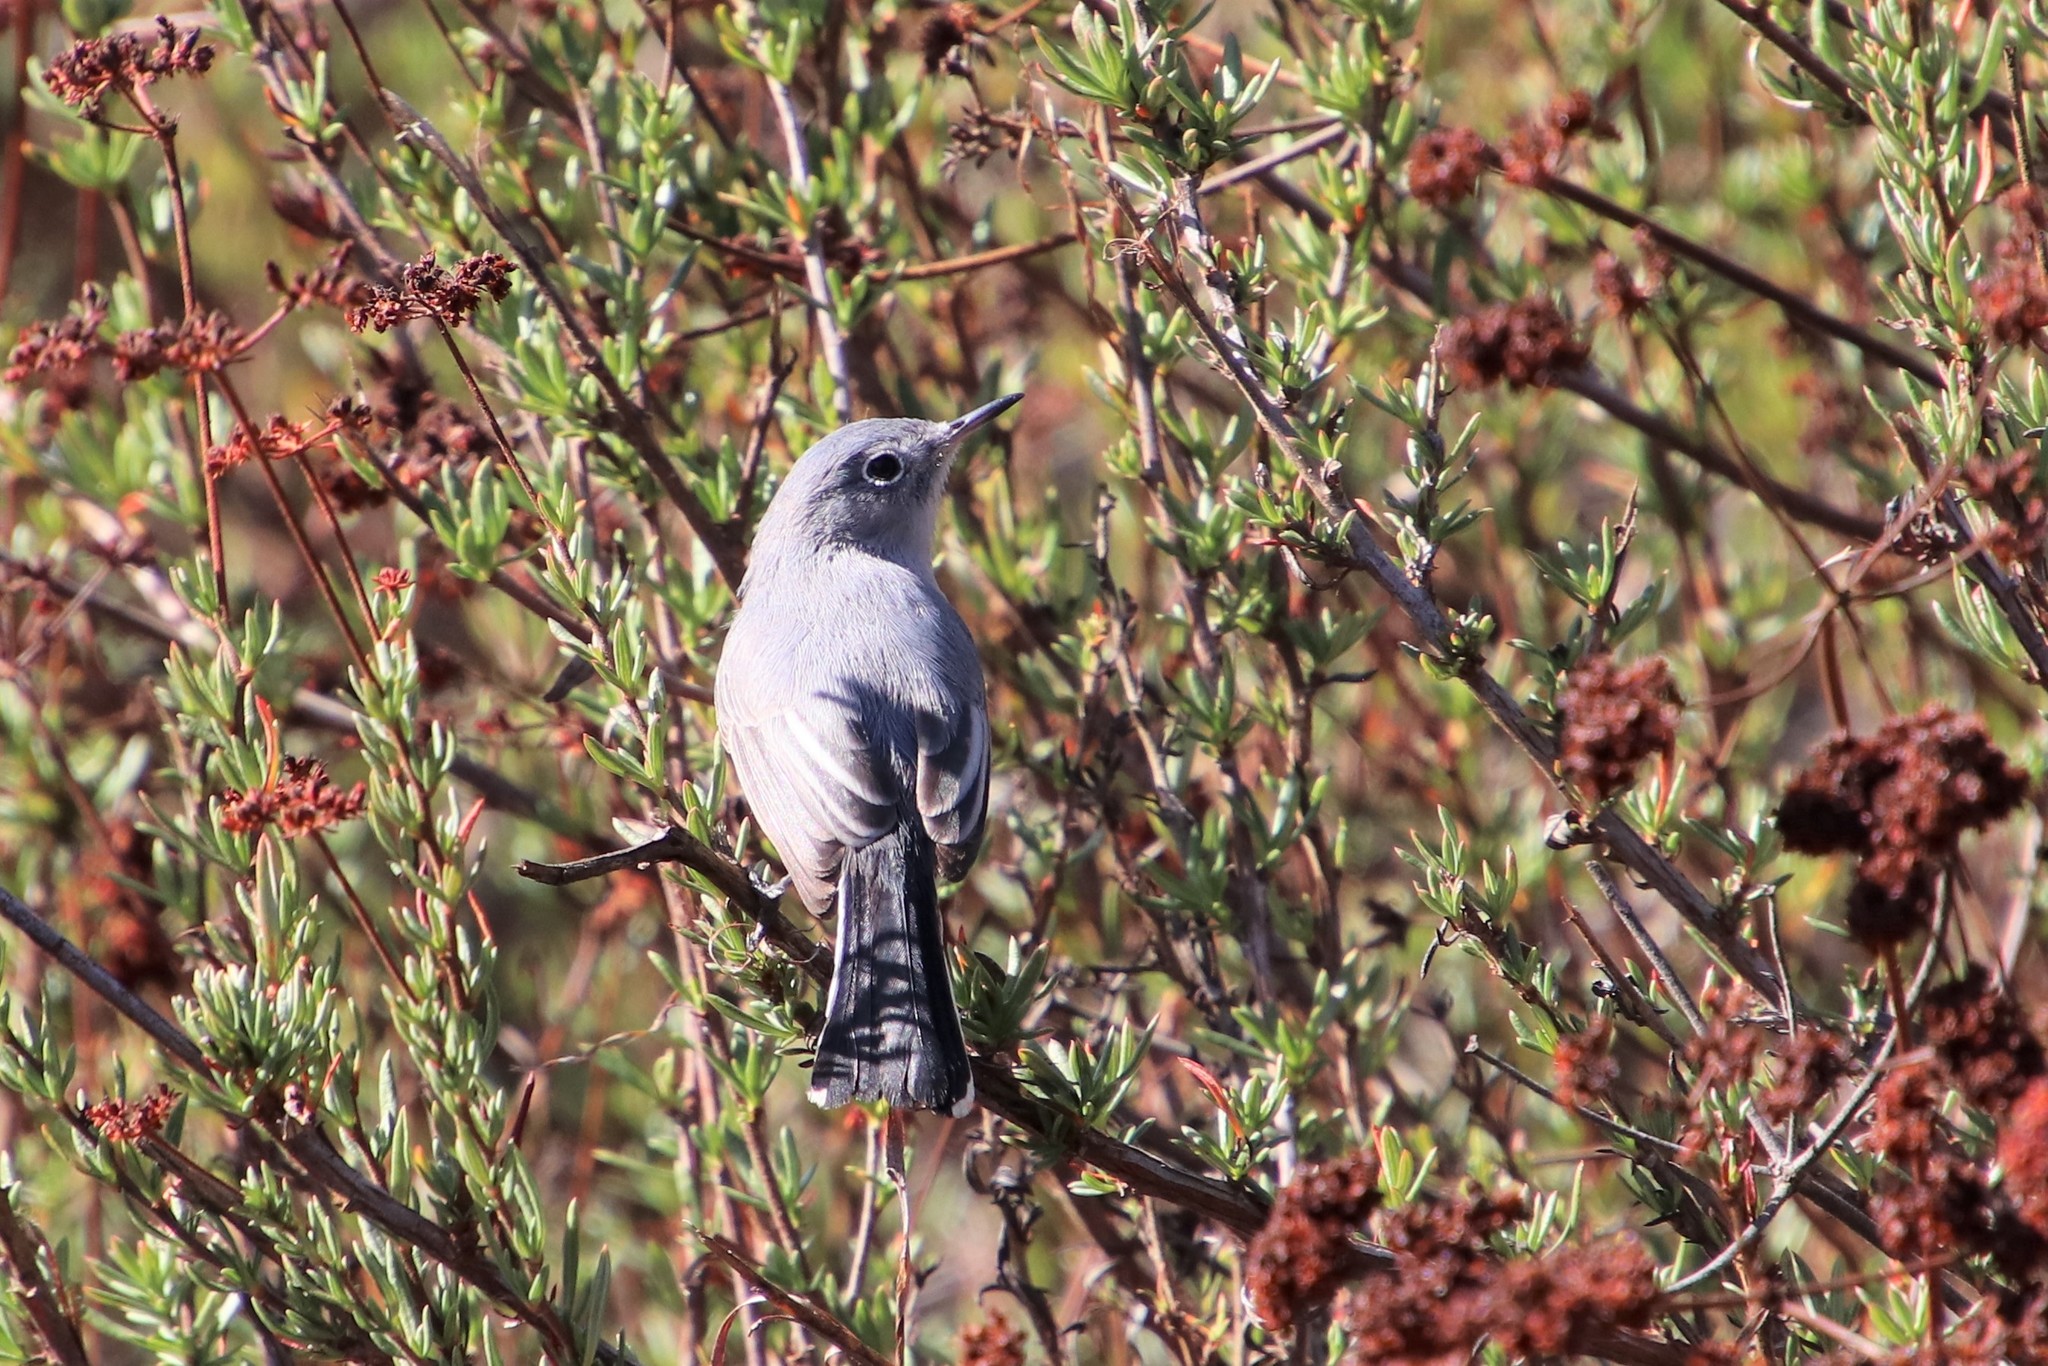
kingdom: Animalia
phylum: Chordata
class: Aves
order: Passeriformes
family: Polioptilidae
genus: Polioptila
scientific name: Polioptila caerulea
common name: Blue-gray gnatcatcher
